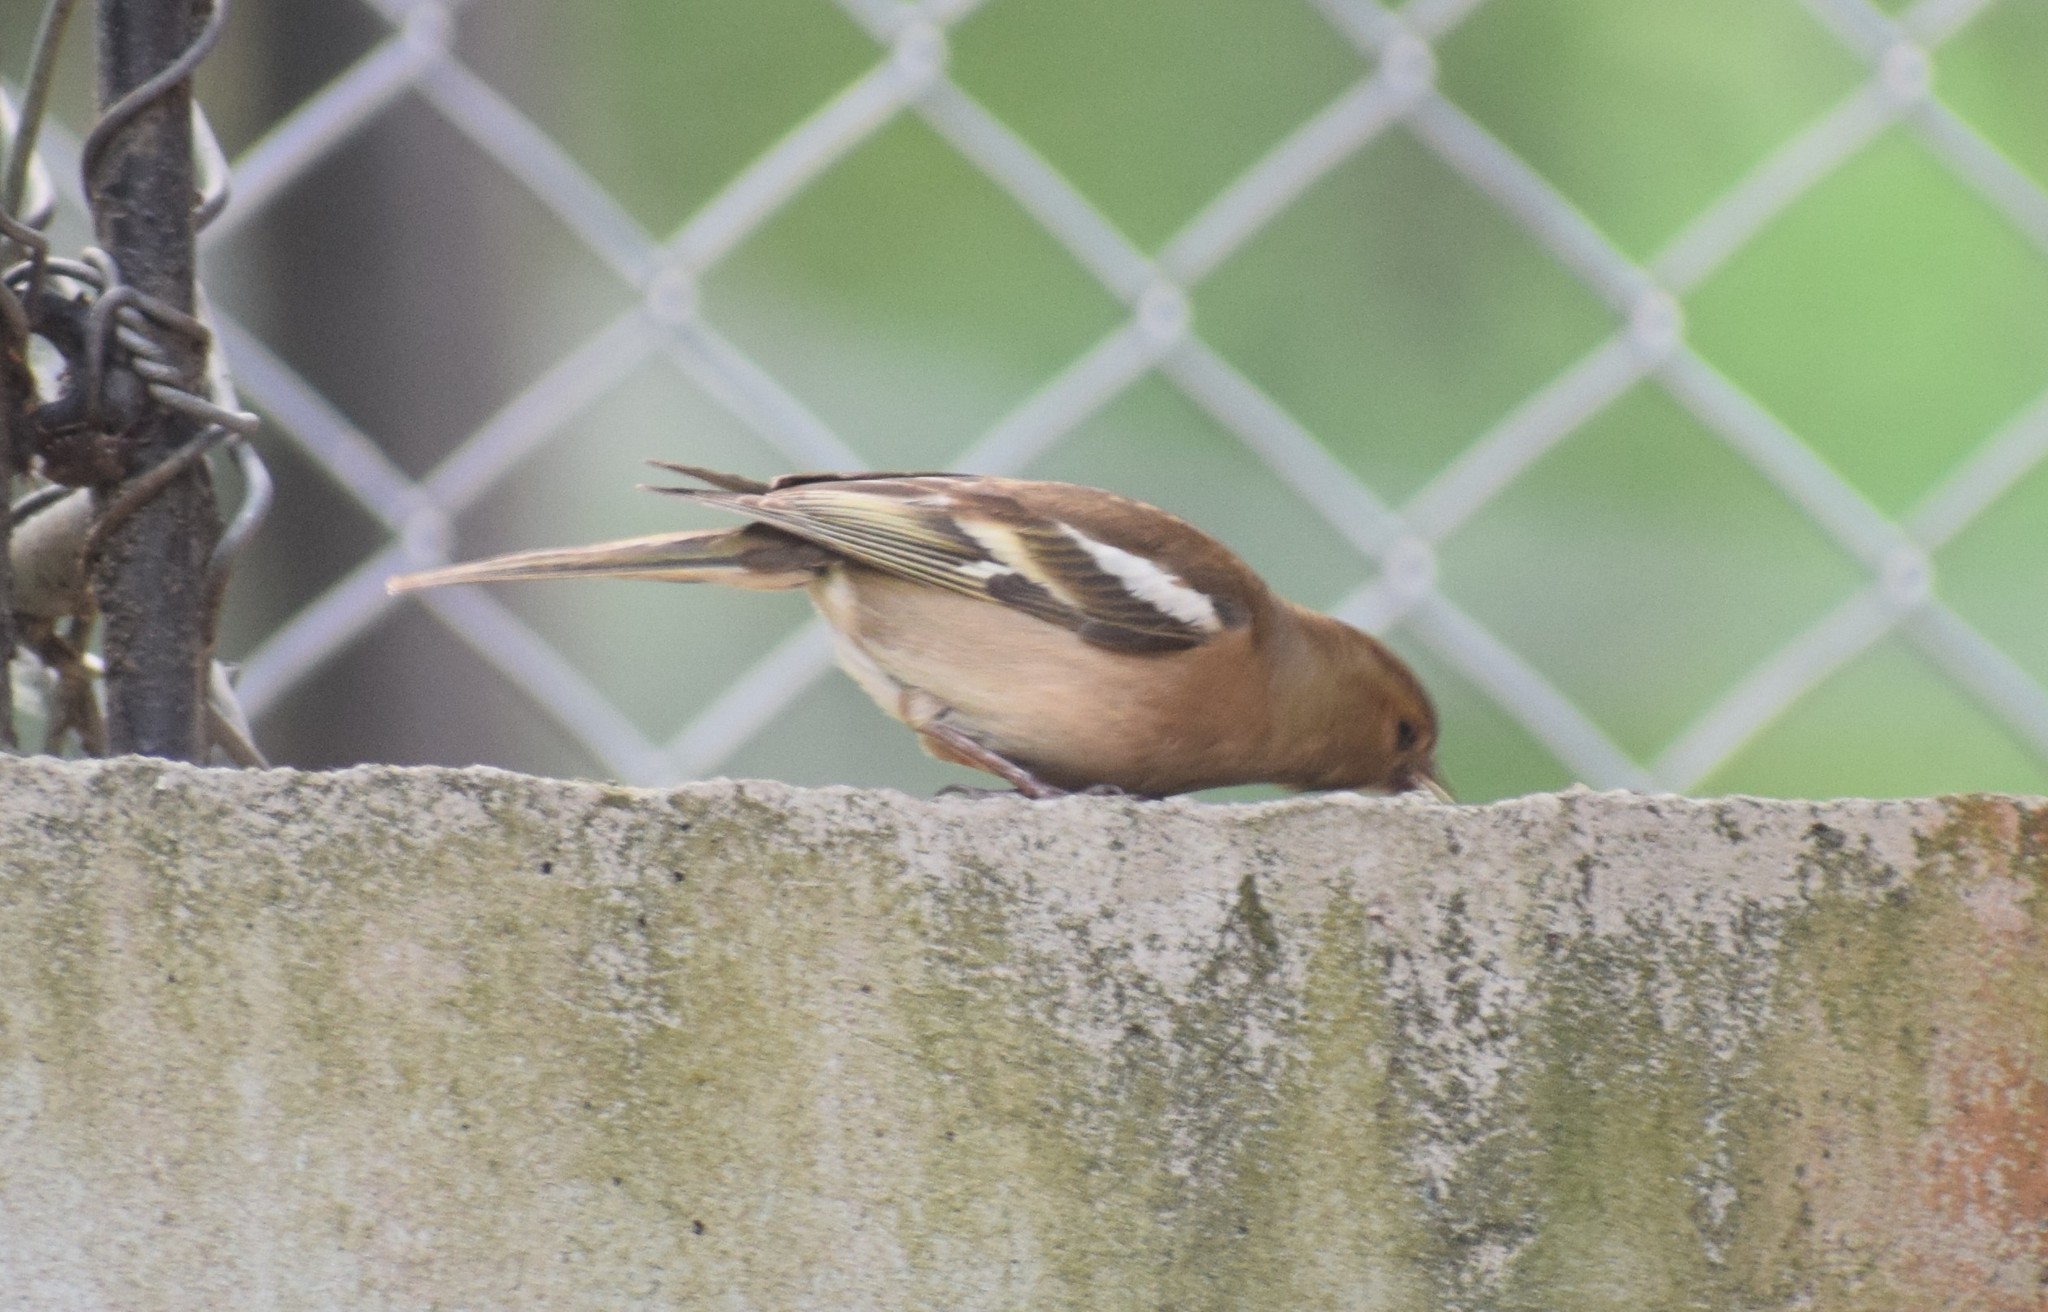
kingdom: Animalia
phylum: Chordata
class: Aves
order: Passeriformes
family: Fringillidae
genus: Fringilla
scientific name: Fringilla coelebs
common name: Common chaffinch
